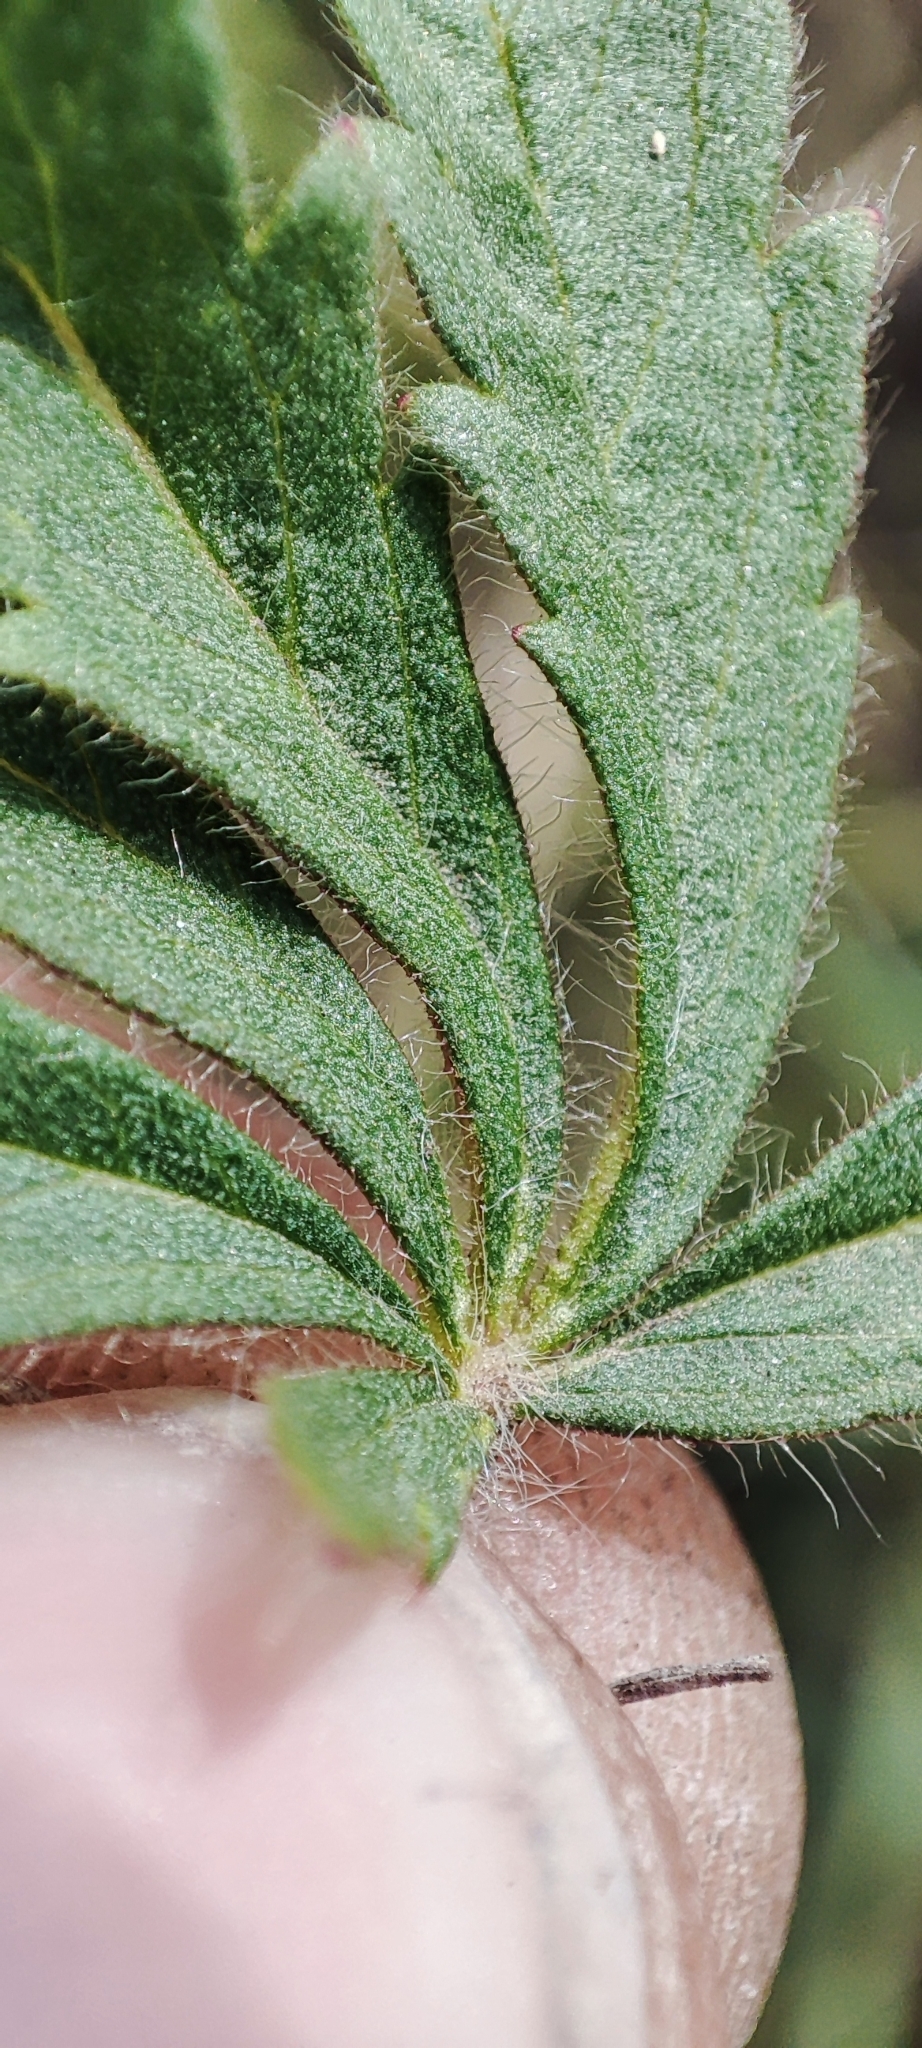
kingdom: Plantae
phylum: Tracheophyta
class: Magnoliopsida
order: Rosales
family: Rosaceae
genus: Potentilla
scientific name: Potentilla humifusa
